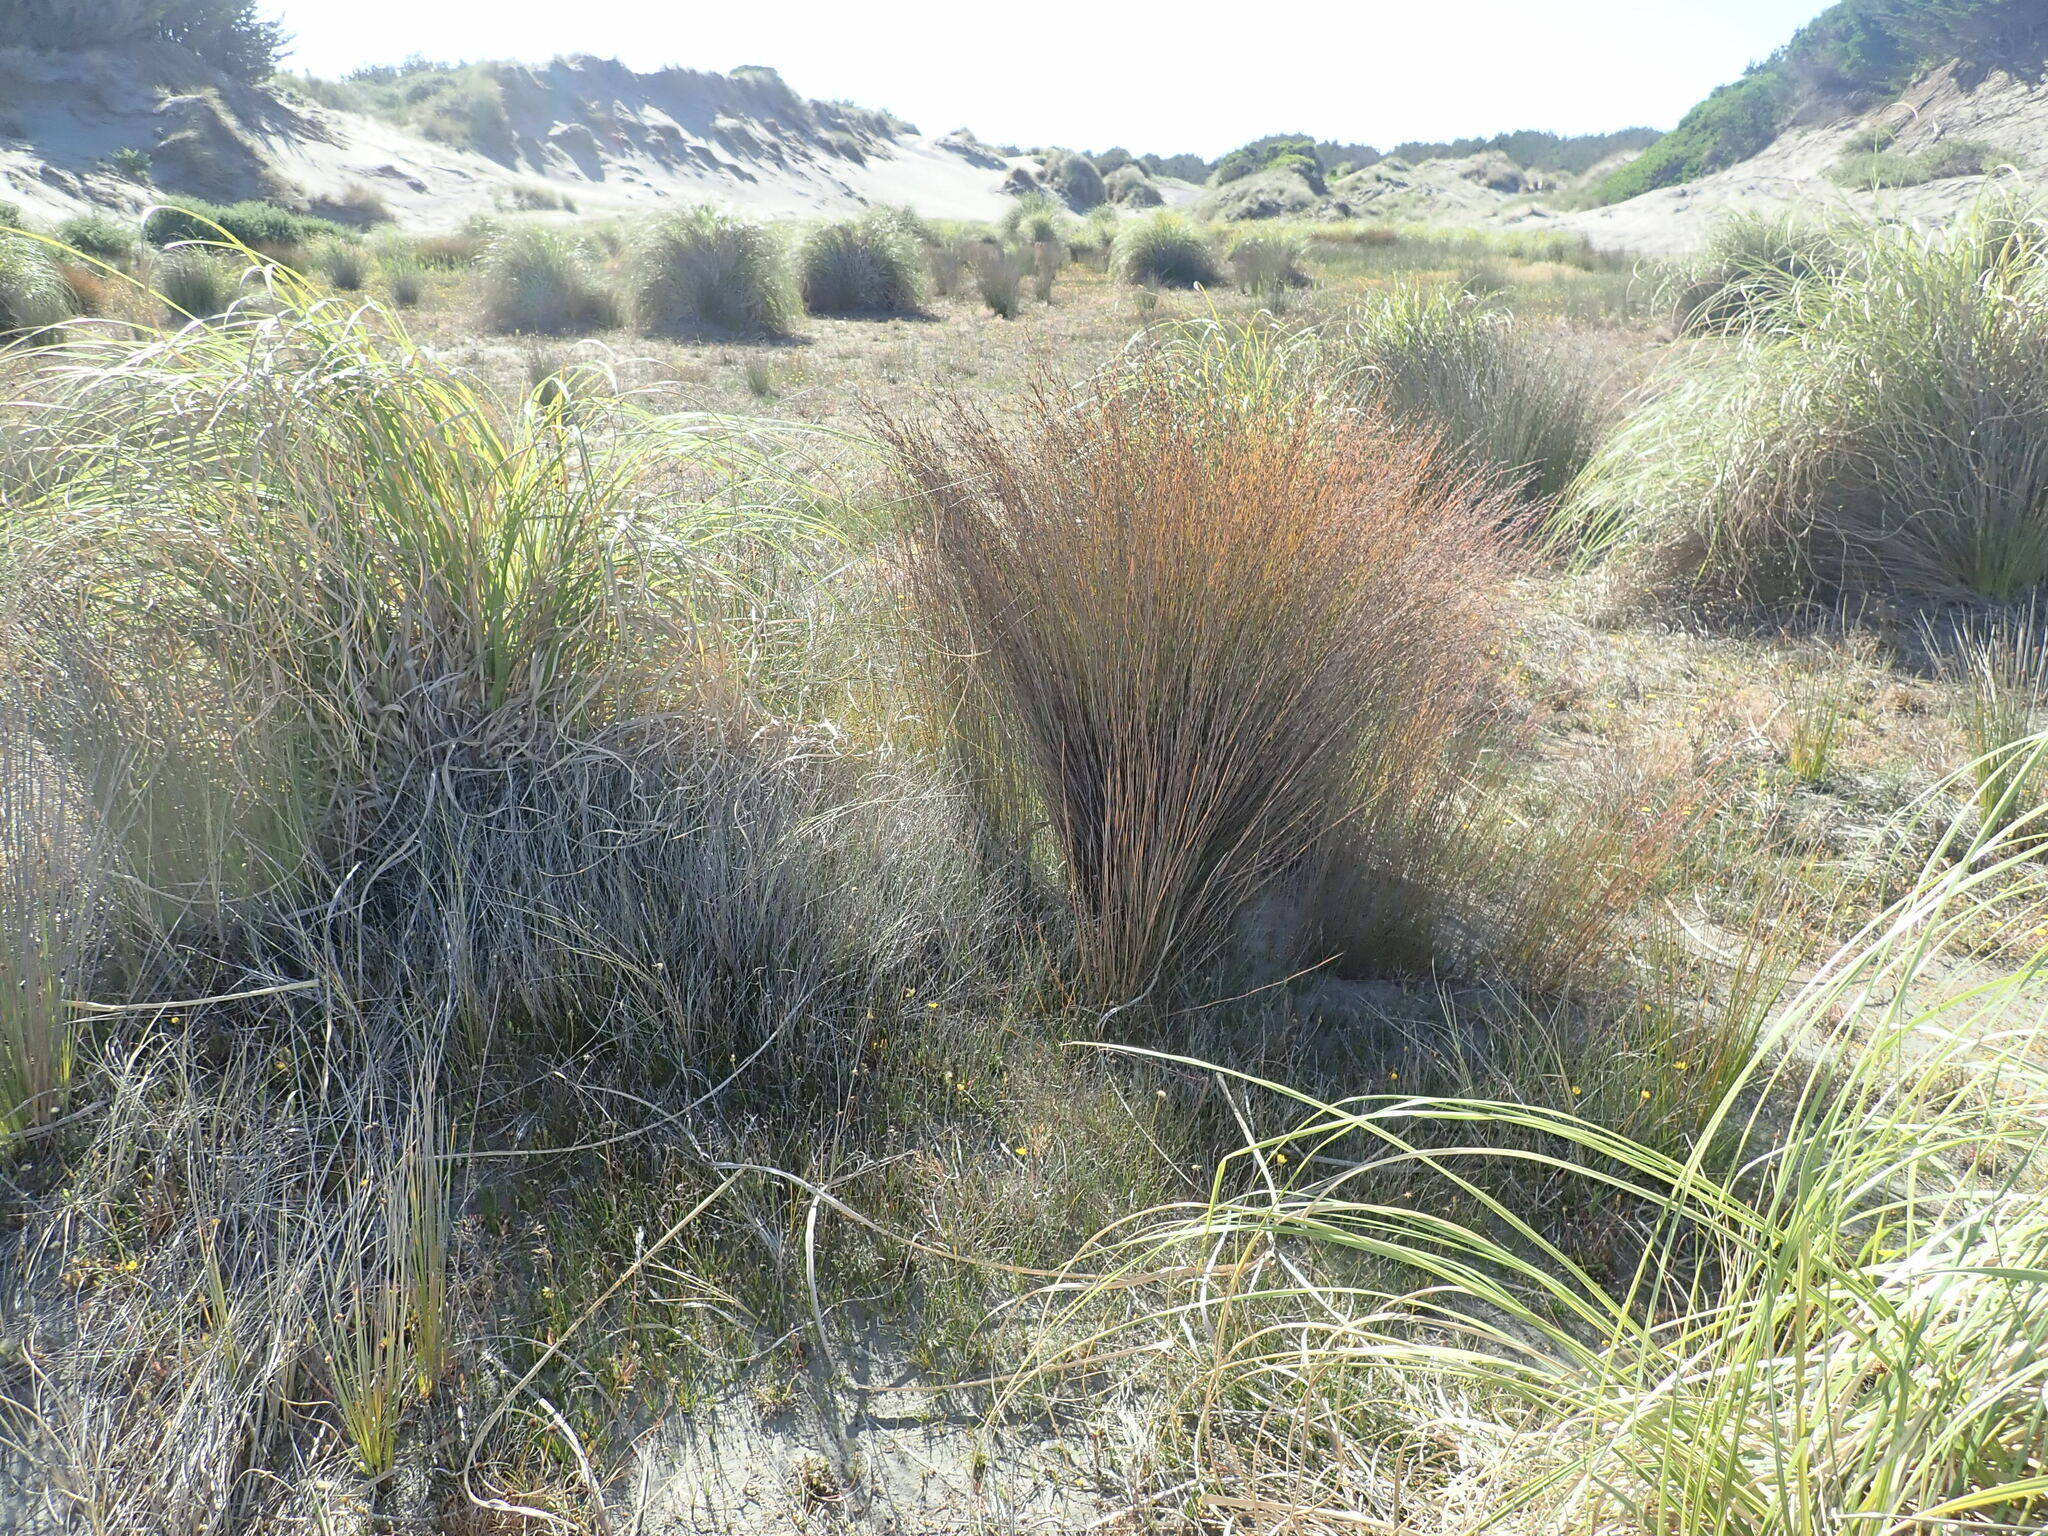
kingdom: Plantae
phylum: Tracheophyta
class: Liliopsida
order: Poales
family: Restionaceae
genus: Apodasmia
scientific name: Apodasmia similis
